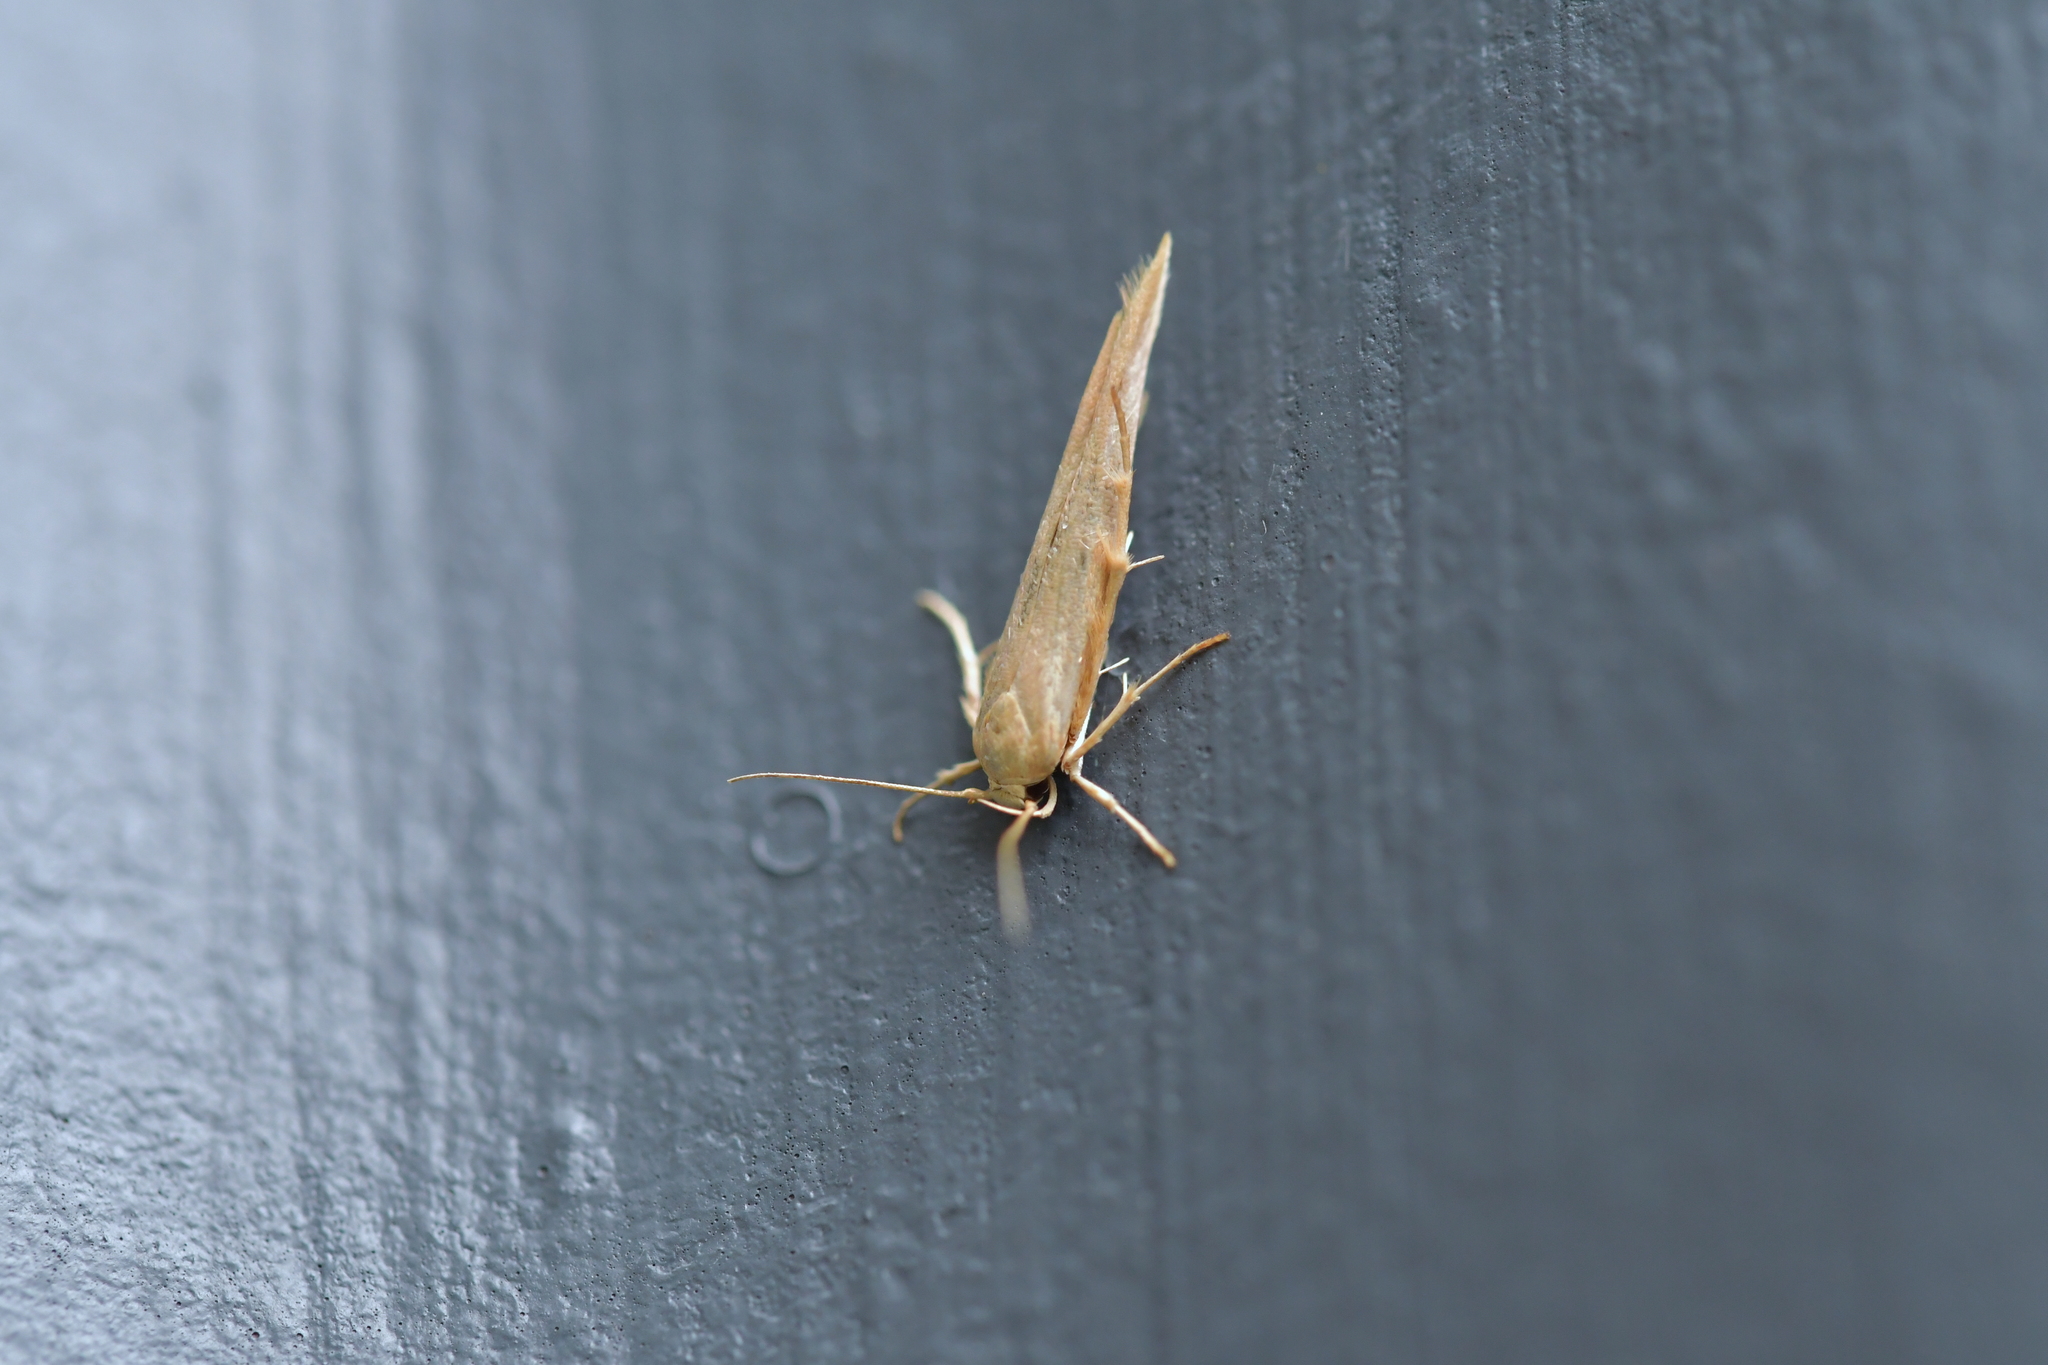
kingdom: Animalia
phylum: Arthropoda
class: Insecta
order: Lepidoptera
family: Stathmopodidae
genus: Stathmopoda
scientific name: Stathmopoda skelloni
